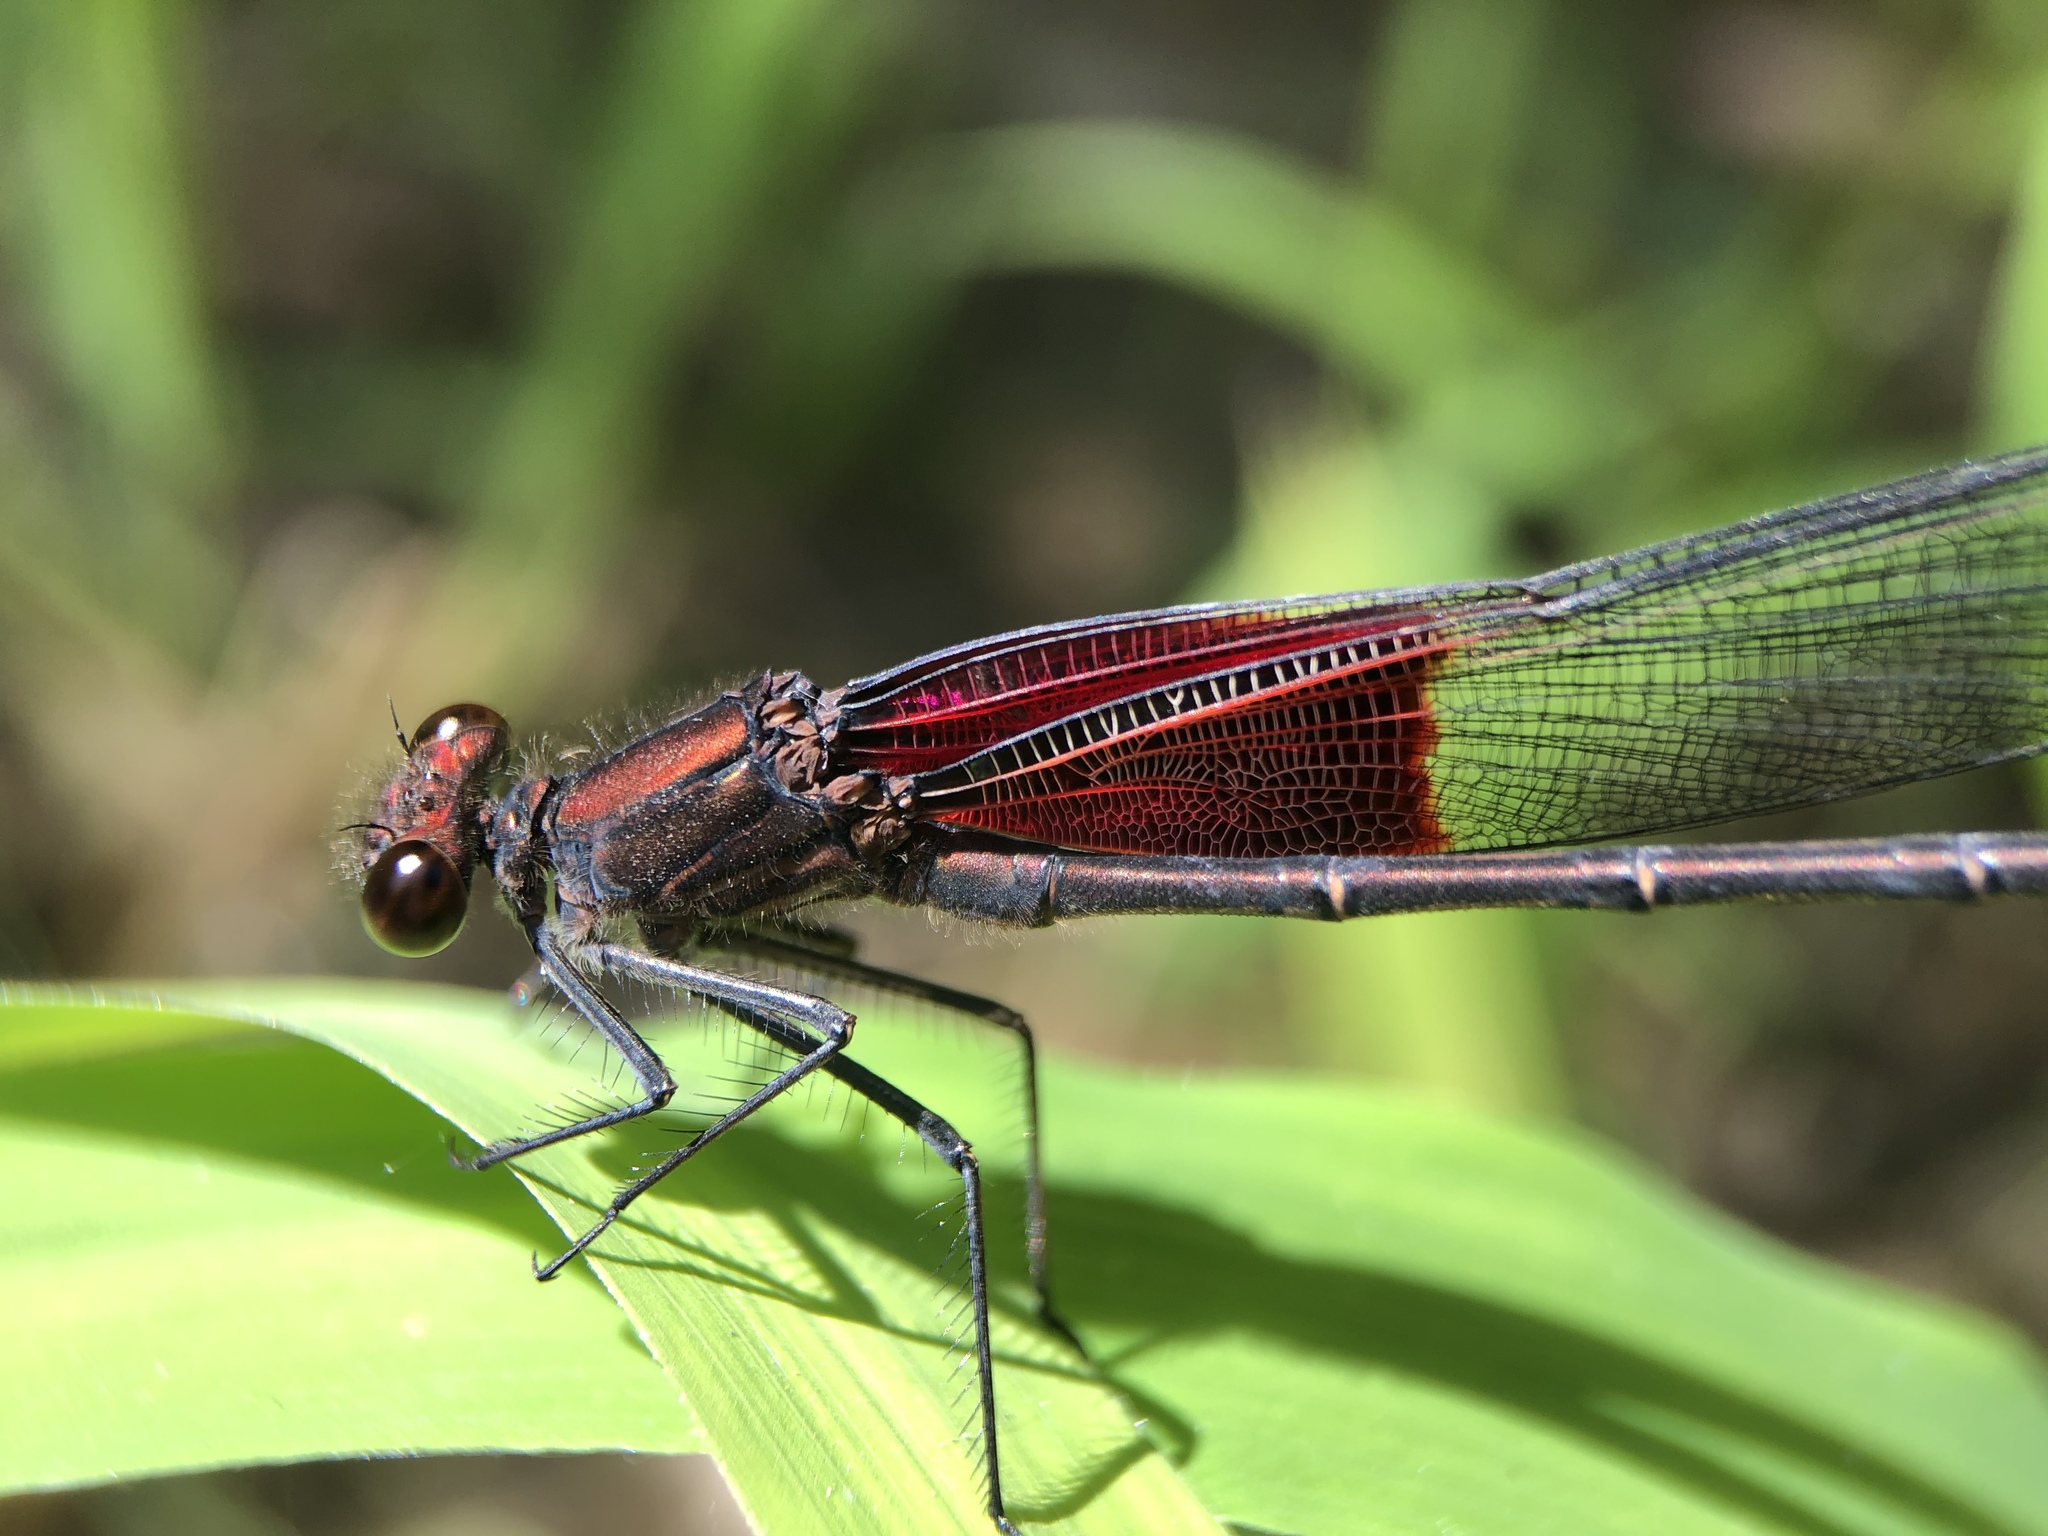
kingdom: Animalia
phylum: Arthropoda
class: Insecta
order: Odonata
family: Calopterygidae
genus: Hetaerina
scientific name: Hetaerina americana
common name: American rubyspot
